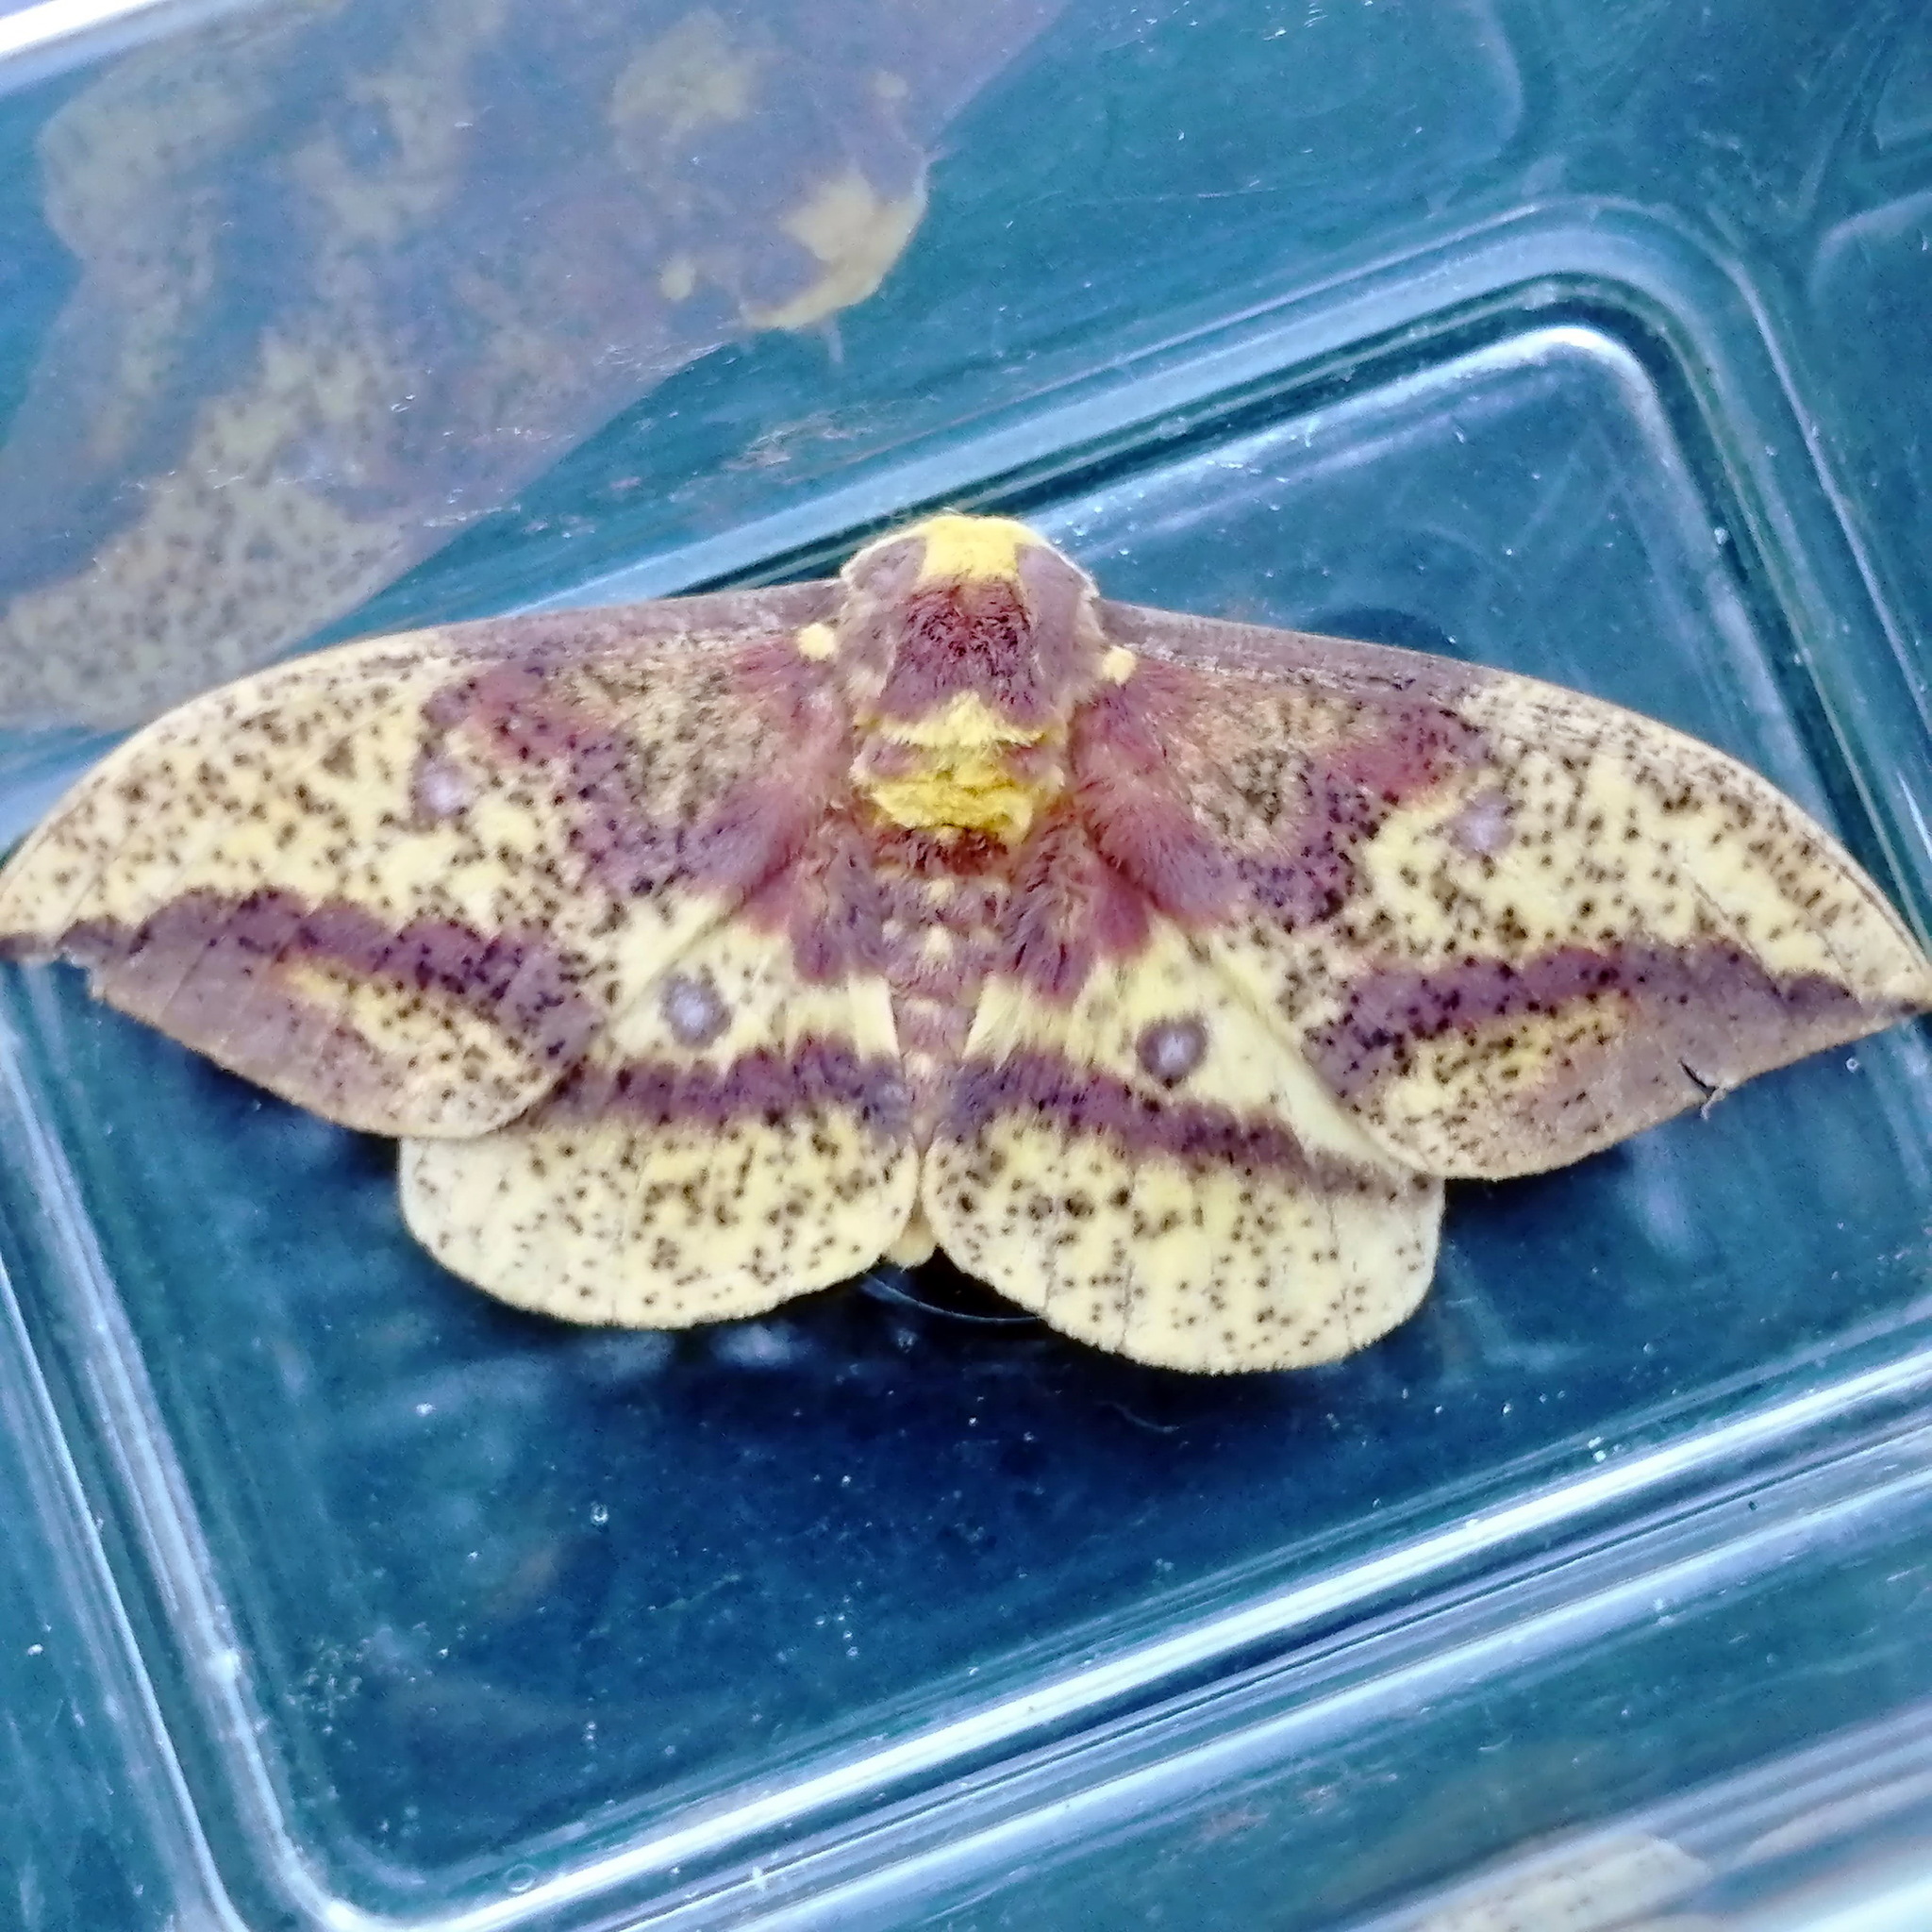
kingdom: Animalia
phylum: Arthropoda
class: Insecta
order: Lepidoptera
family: Saturniidae
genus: Eacles
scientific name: Eacles
